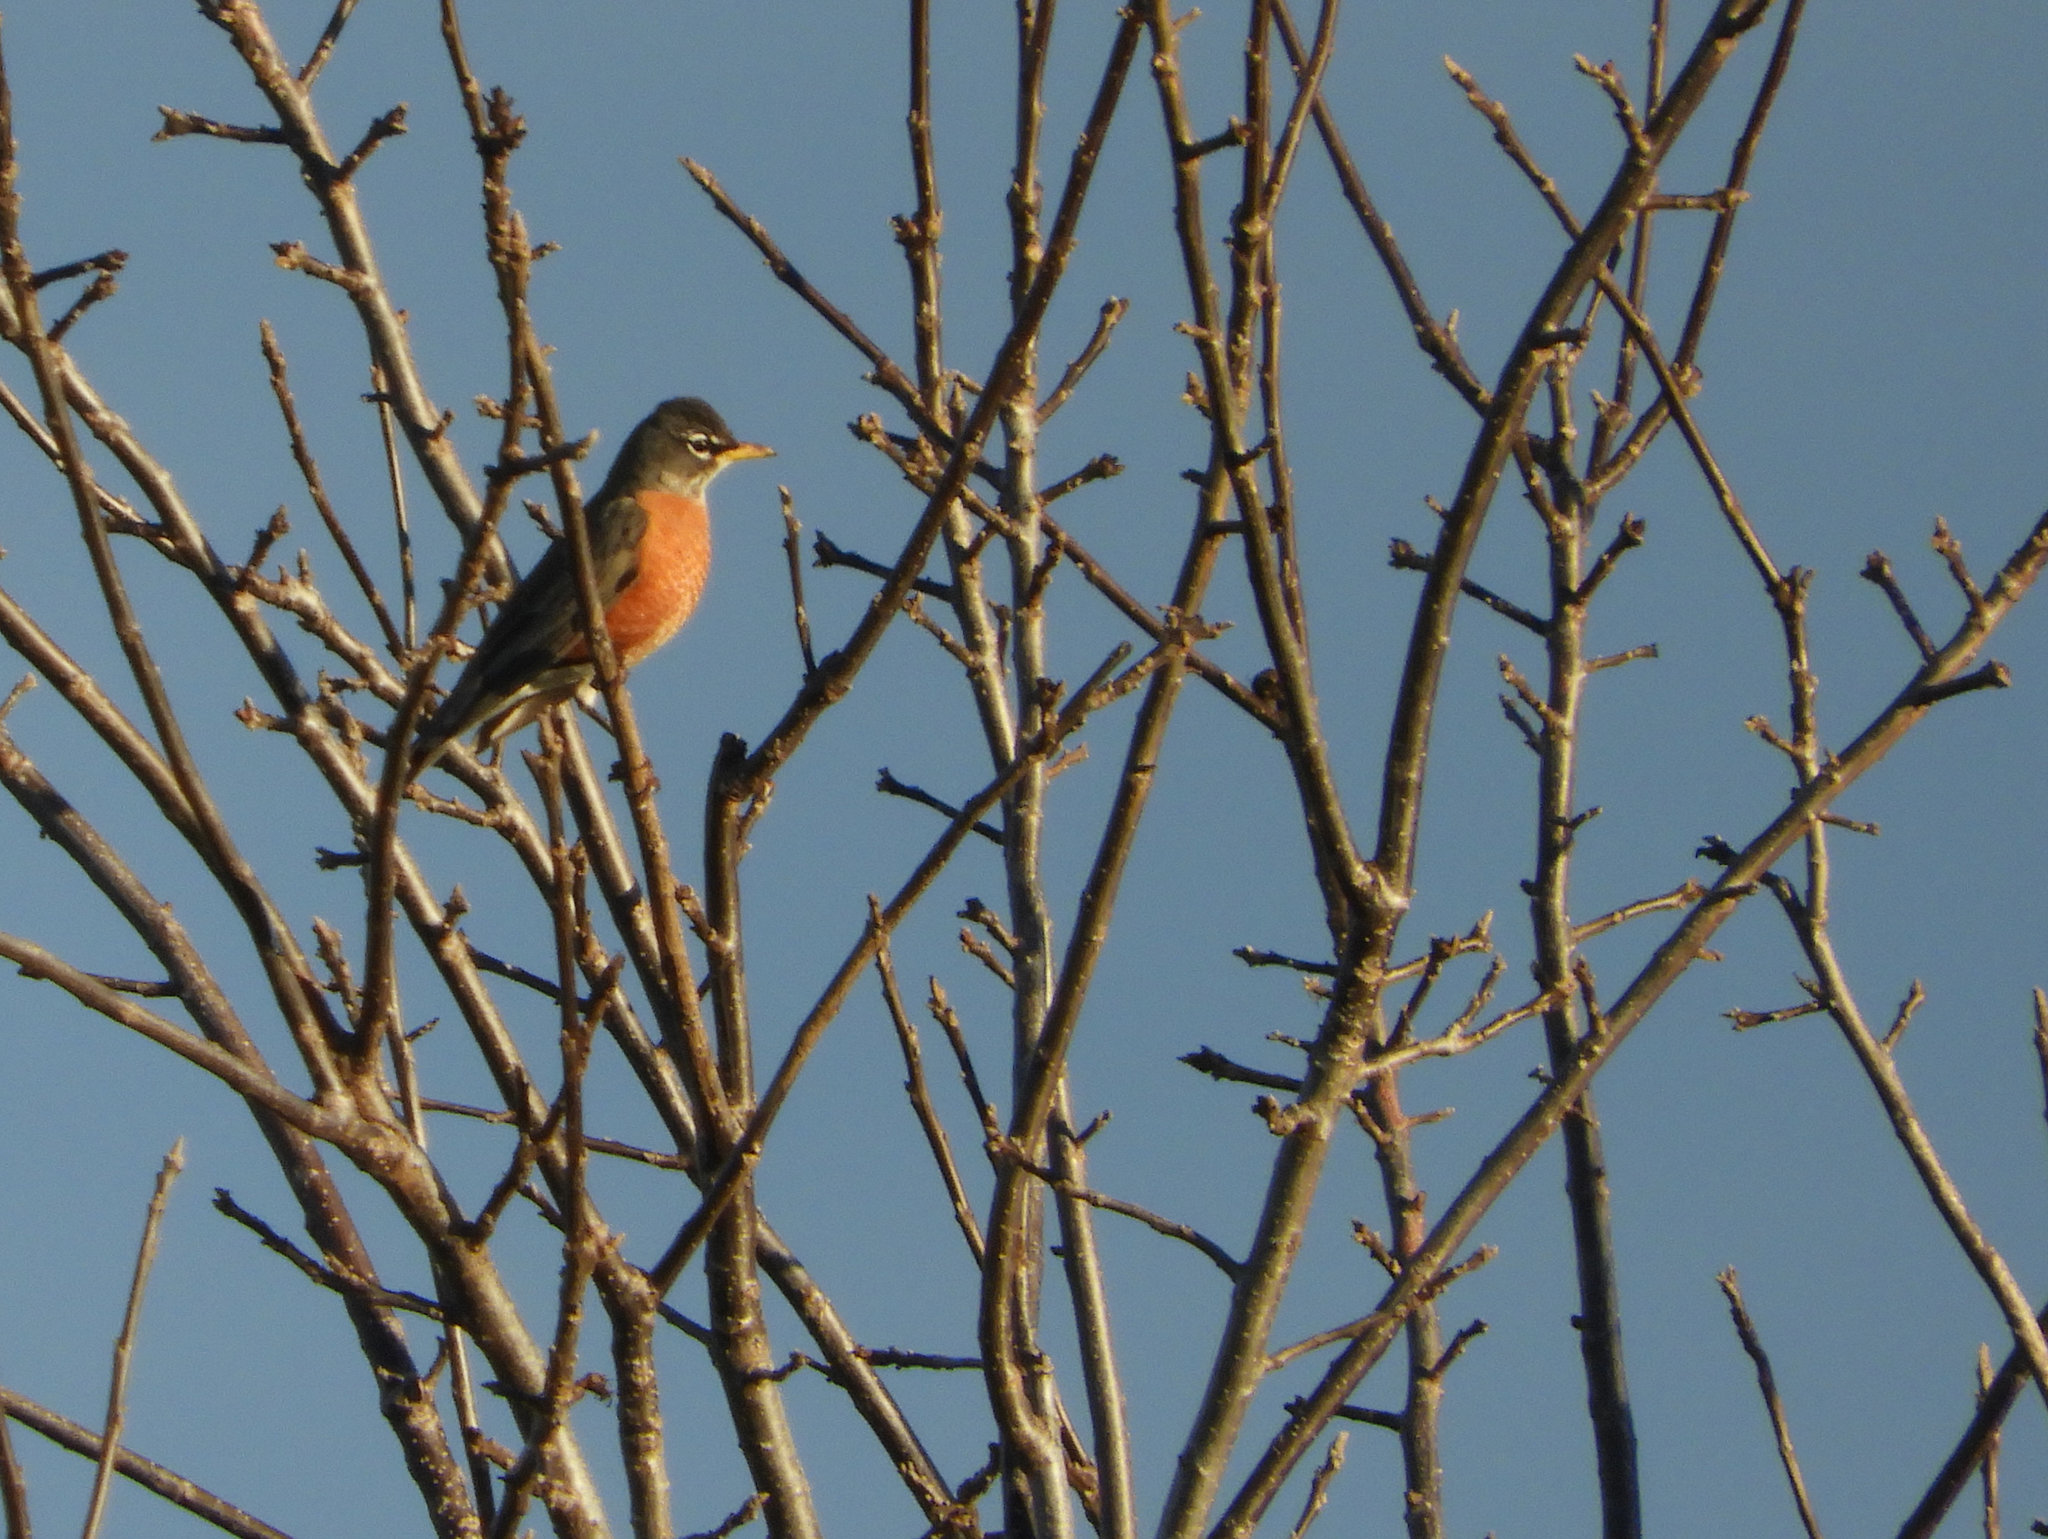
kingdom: Animalia
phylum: Chordata
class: Aves
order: Passeriformes
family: Turdidae
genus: Turdus
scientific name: Turdus migratorius
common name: American robin
